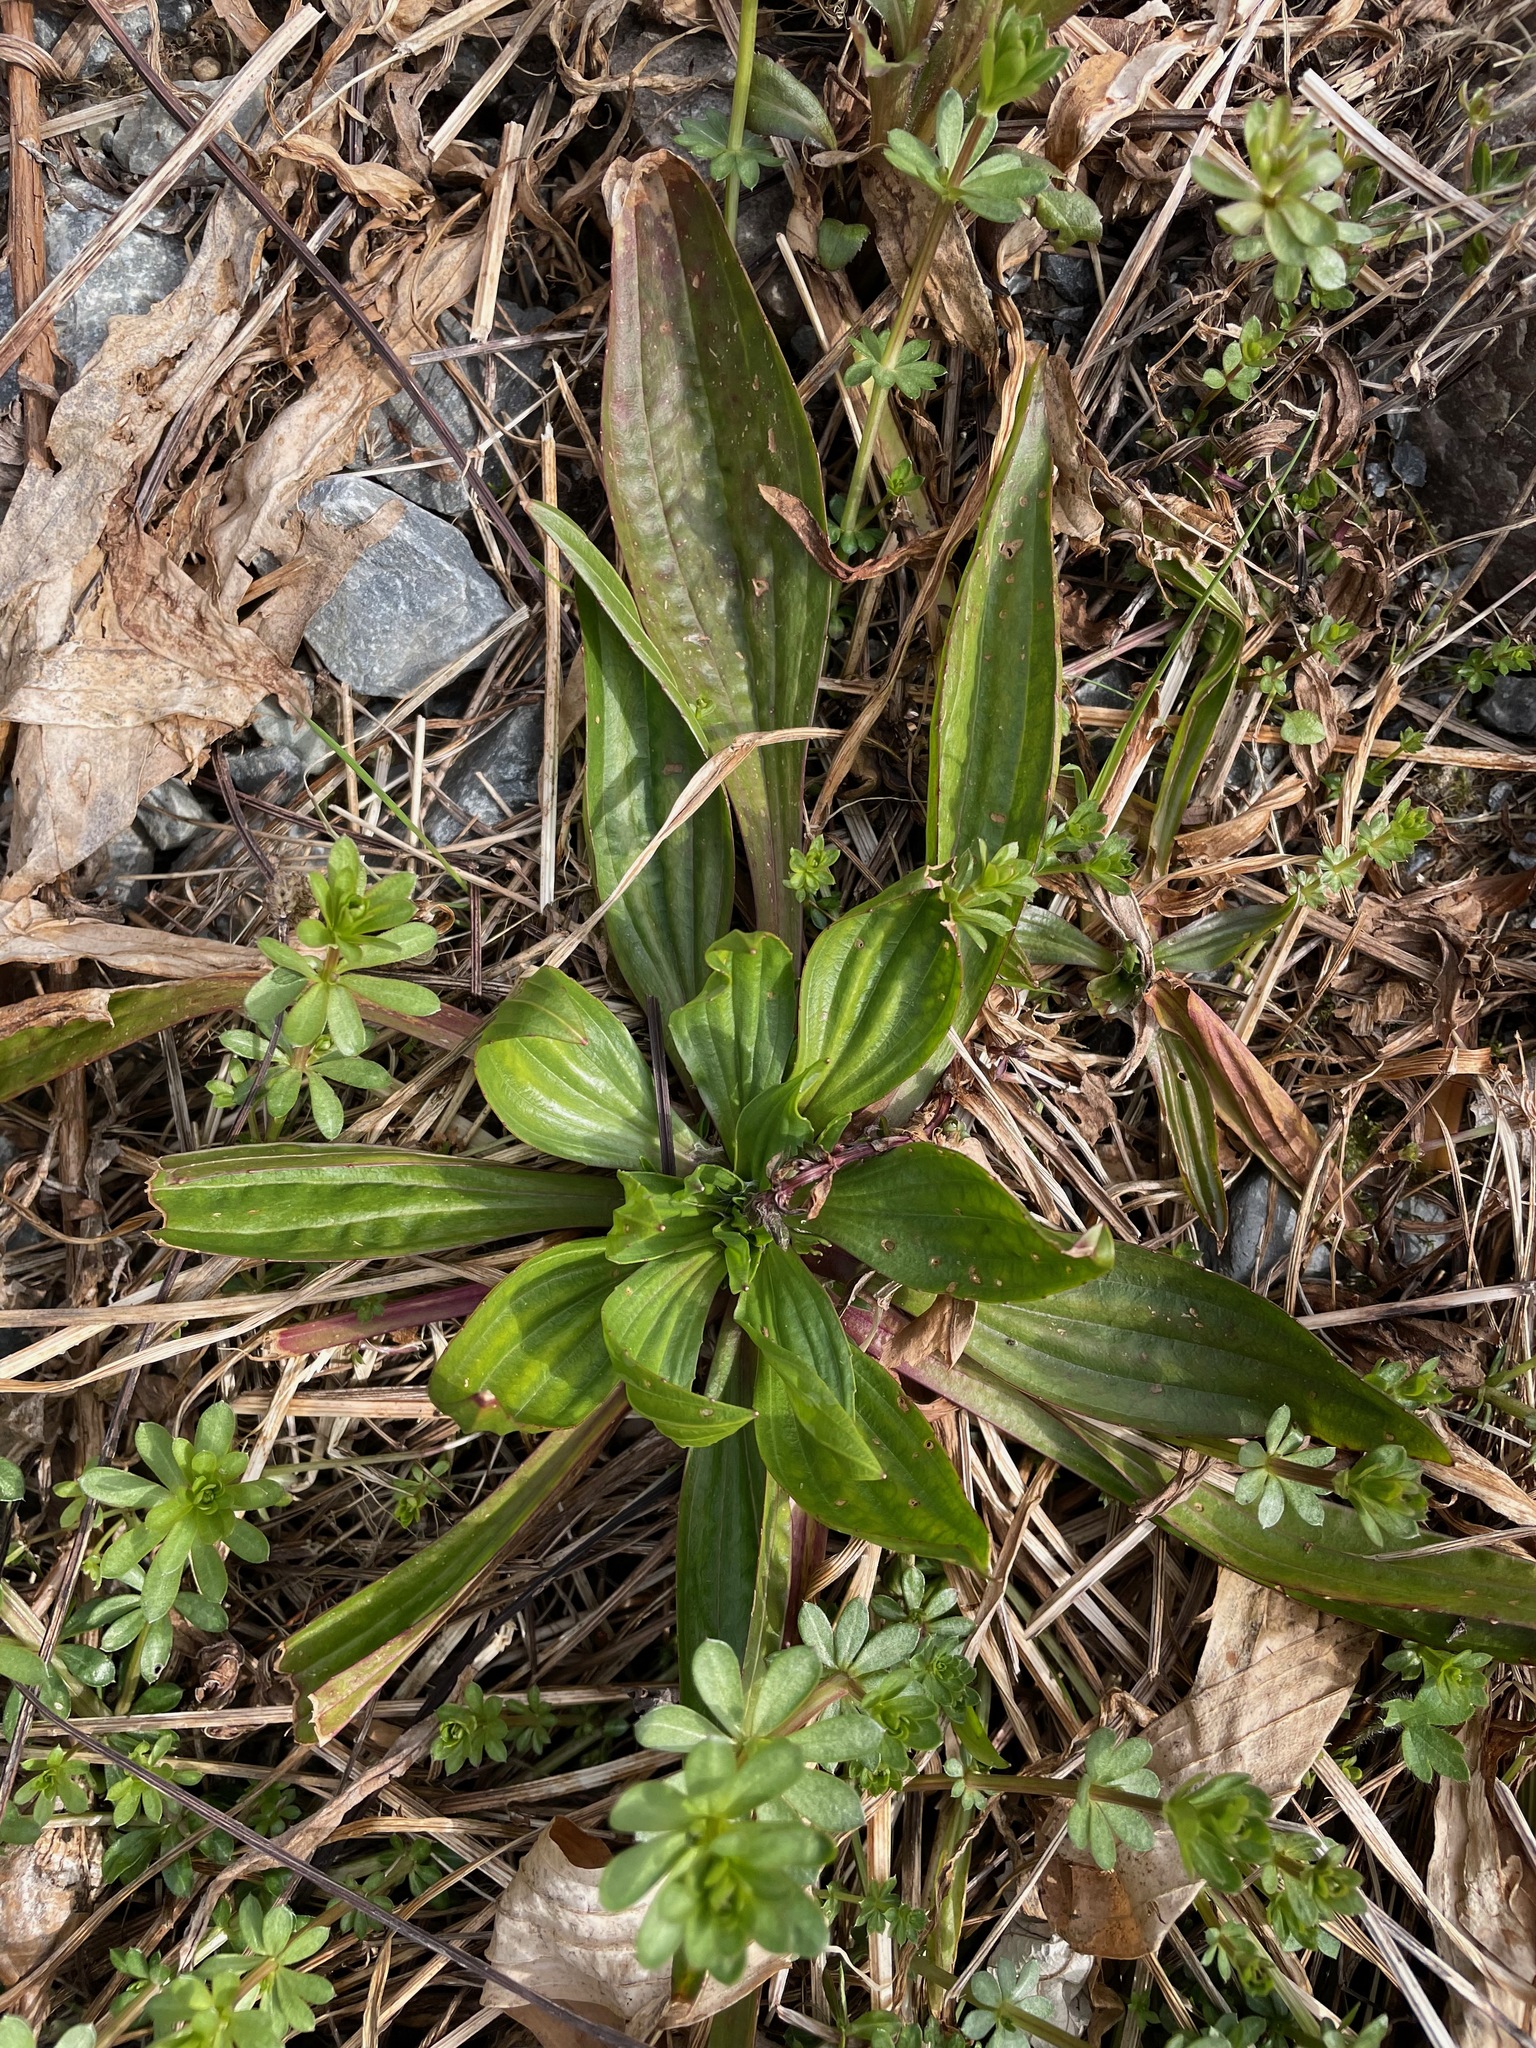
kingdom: Plantae
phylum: Tracheophyta
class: Magnoliopsida
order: Lamiales
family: Plantaginaceae
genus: Plantago
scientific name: Plantago lanceolata
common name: Ribwort plantain
